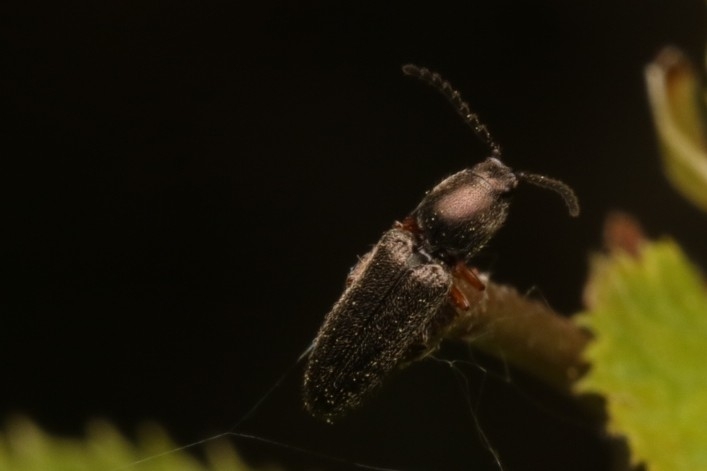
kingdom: Animalia
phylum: Arthropoda
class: Insecta
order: Coleoptera
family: Elateridae
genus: Limonius
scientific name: Limonius basilaris
